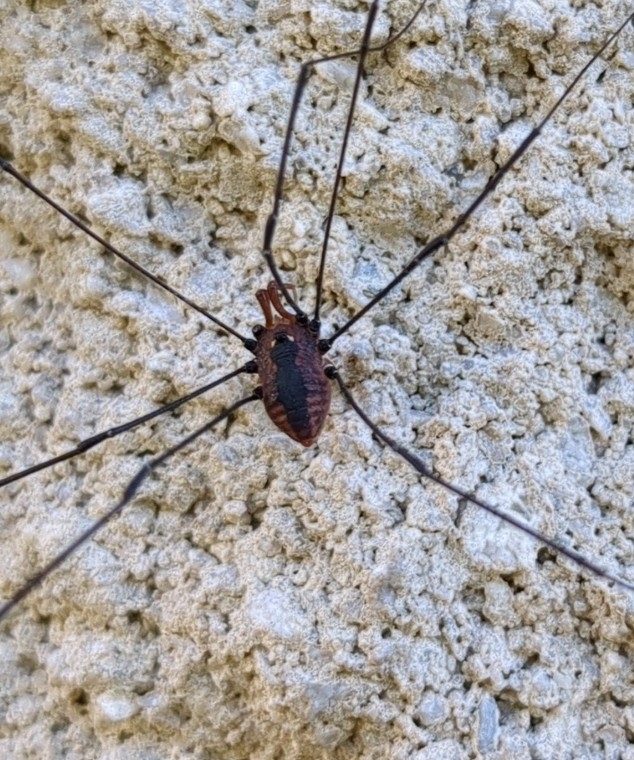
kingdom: Animalia
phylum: Arthropoda
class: Arachnida
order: Opiliones
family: Sclerosomatidae
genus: Leiobunum
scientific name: Leiobunum vittatum
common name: Eastern harvestman
